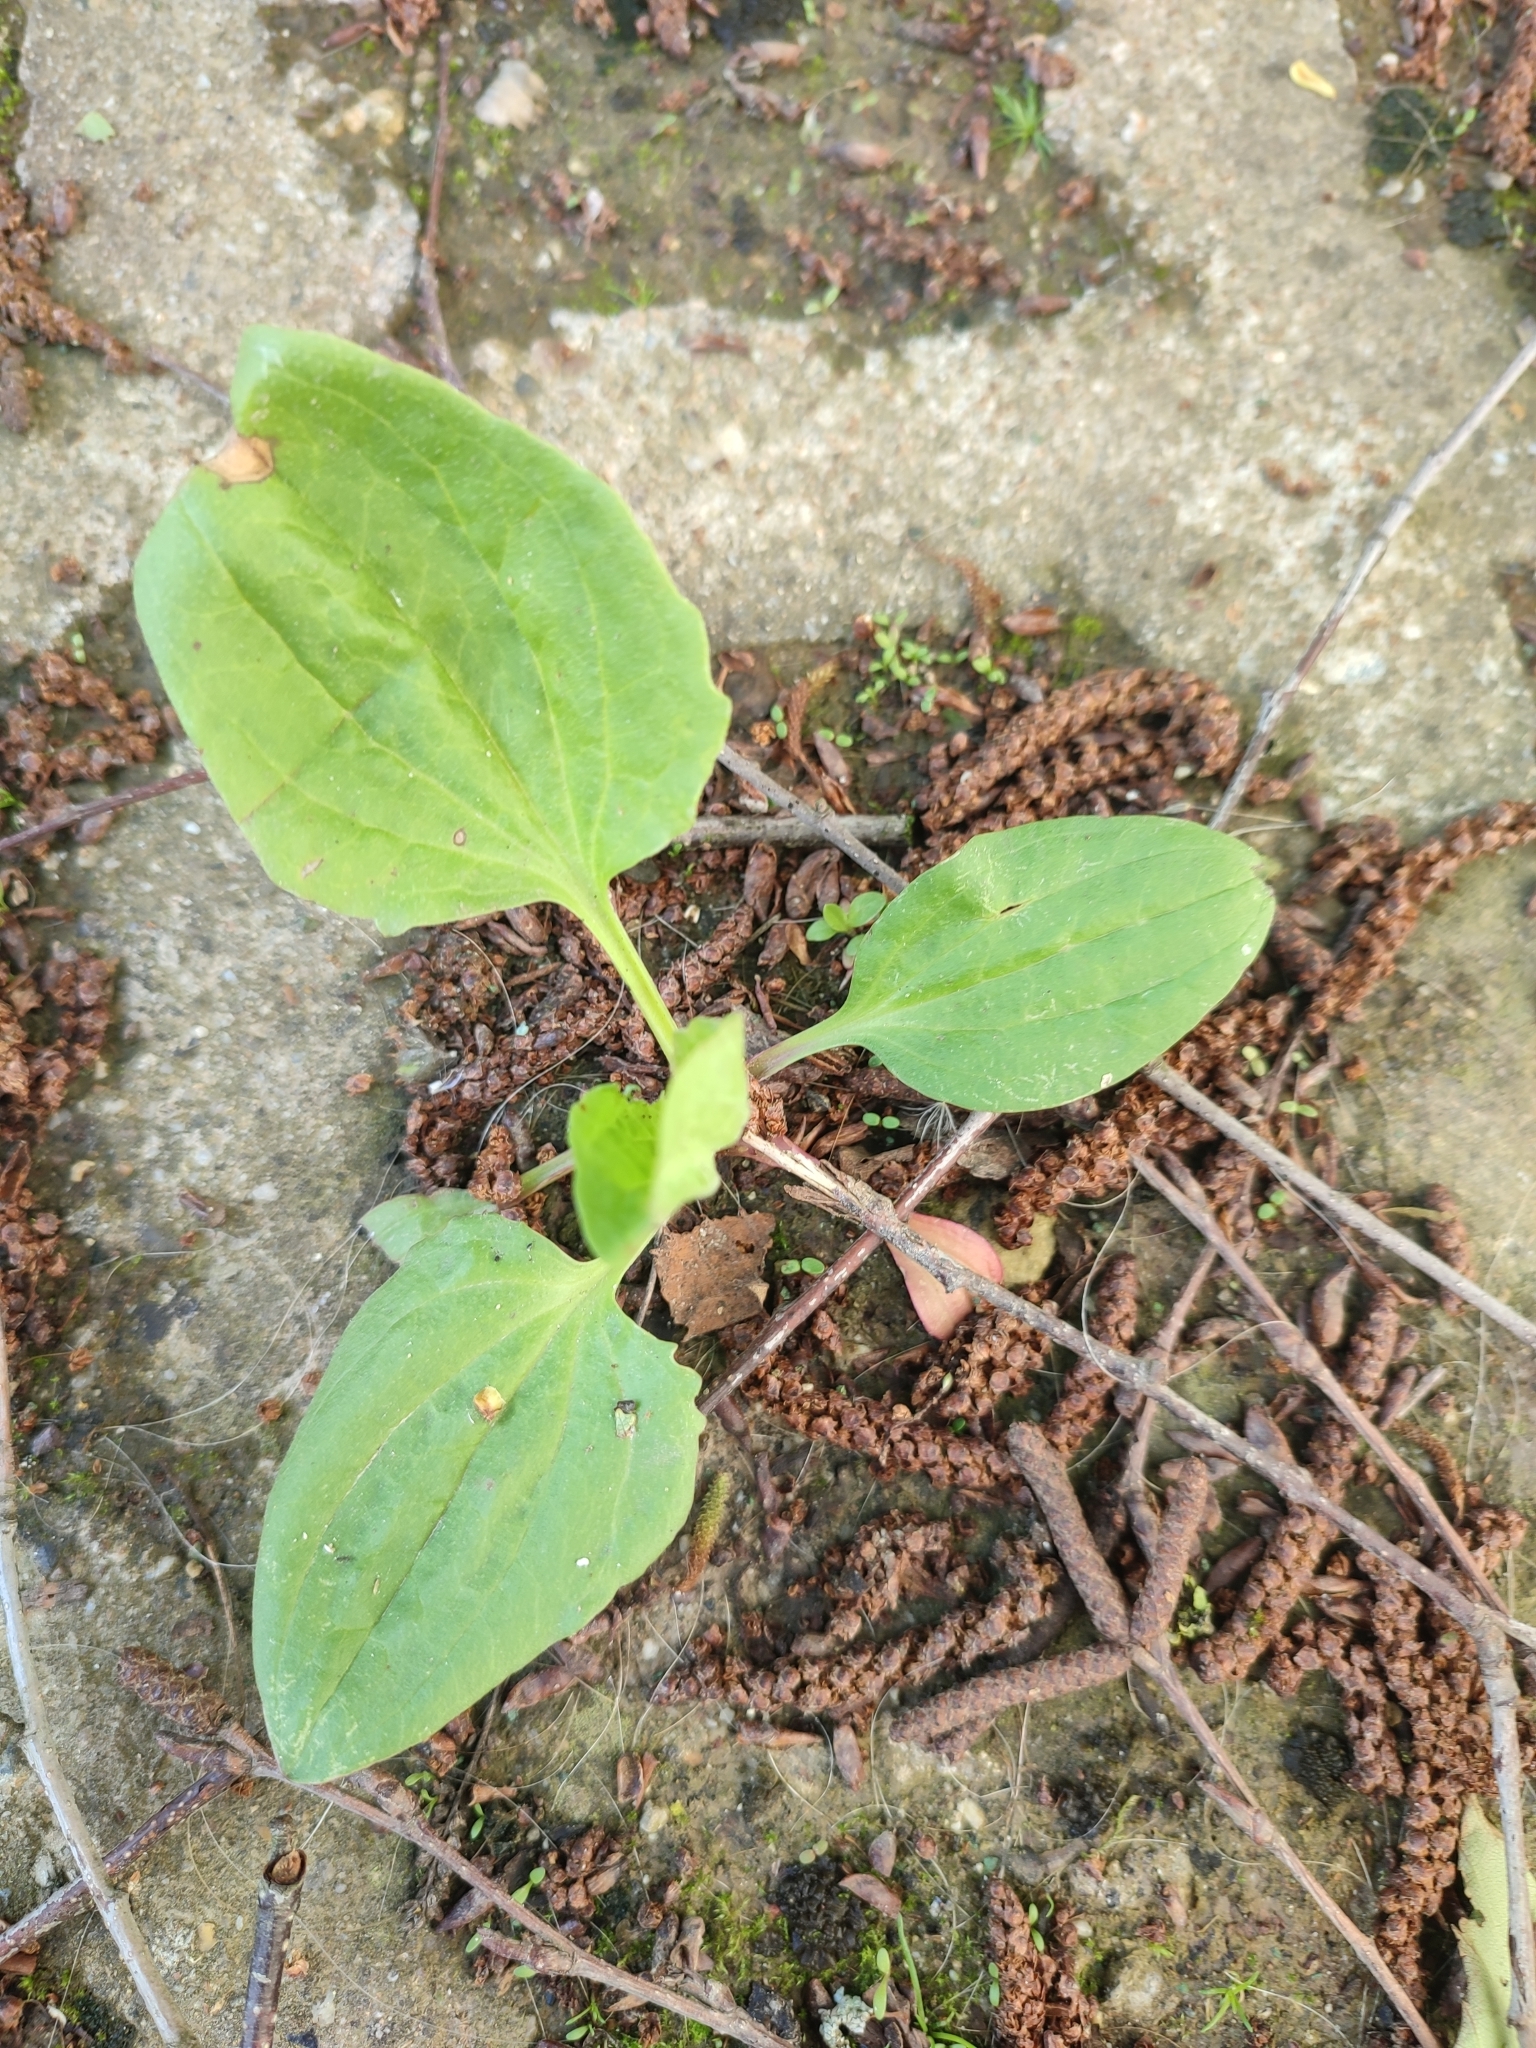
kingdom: Plantae
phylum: Tracheophyta
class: Magnoliopsida
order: Lamiales
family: Plantaginaceae
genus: Plantago
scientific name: Plantago major
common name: Common plantain
